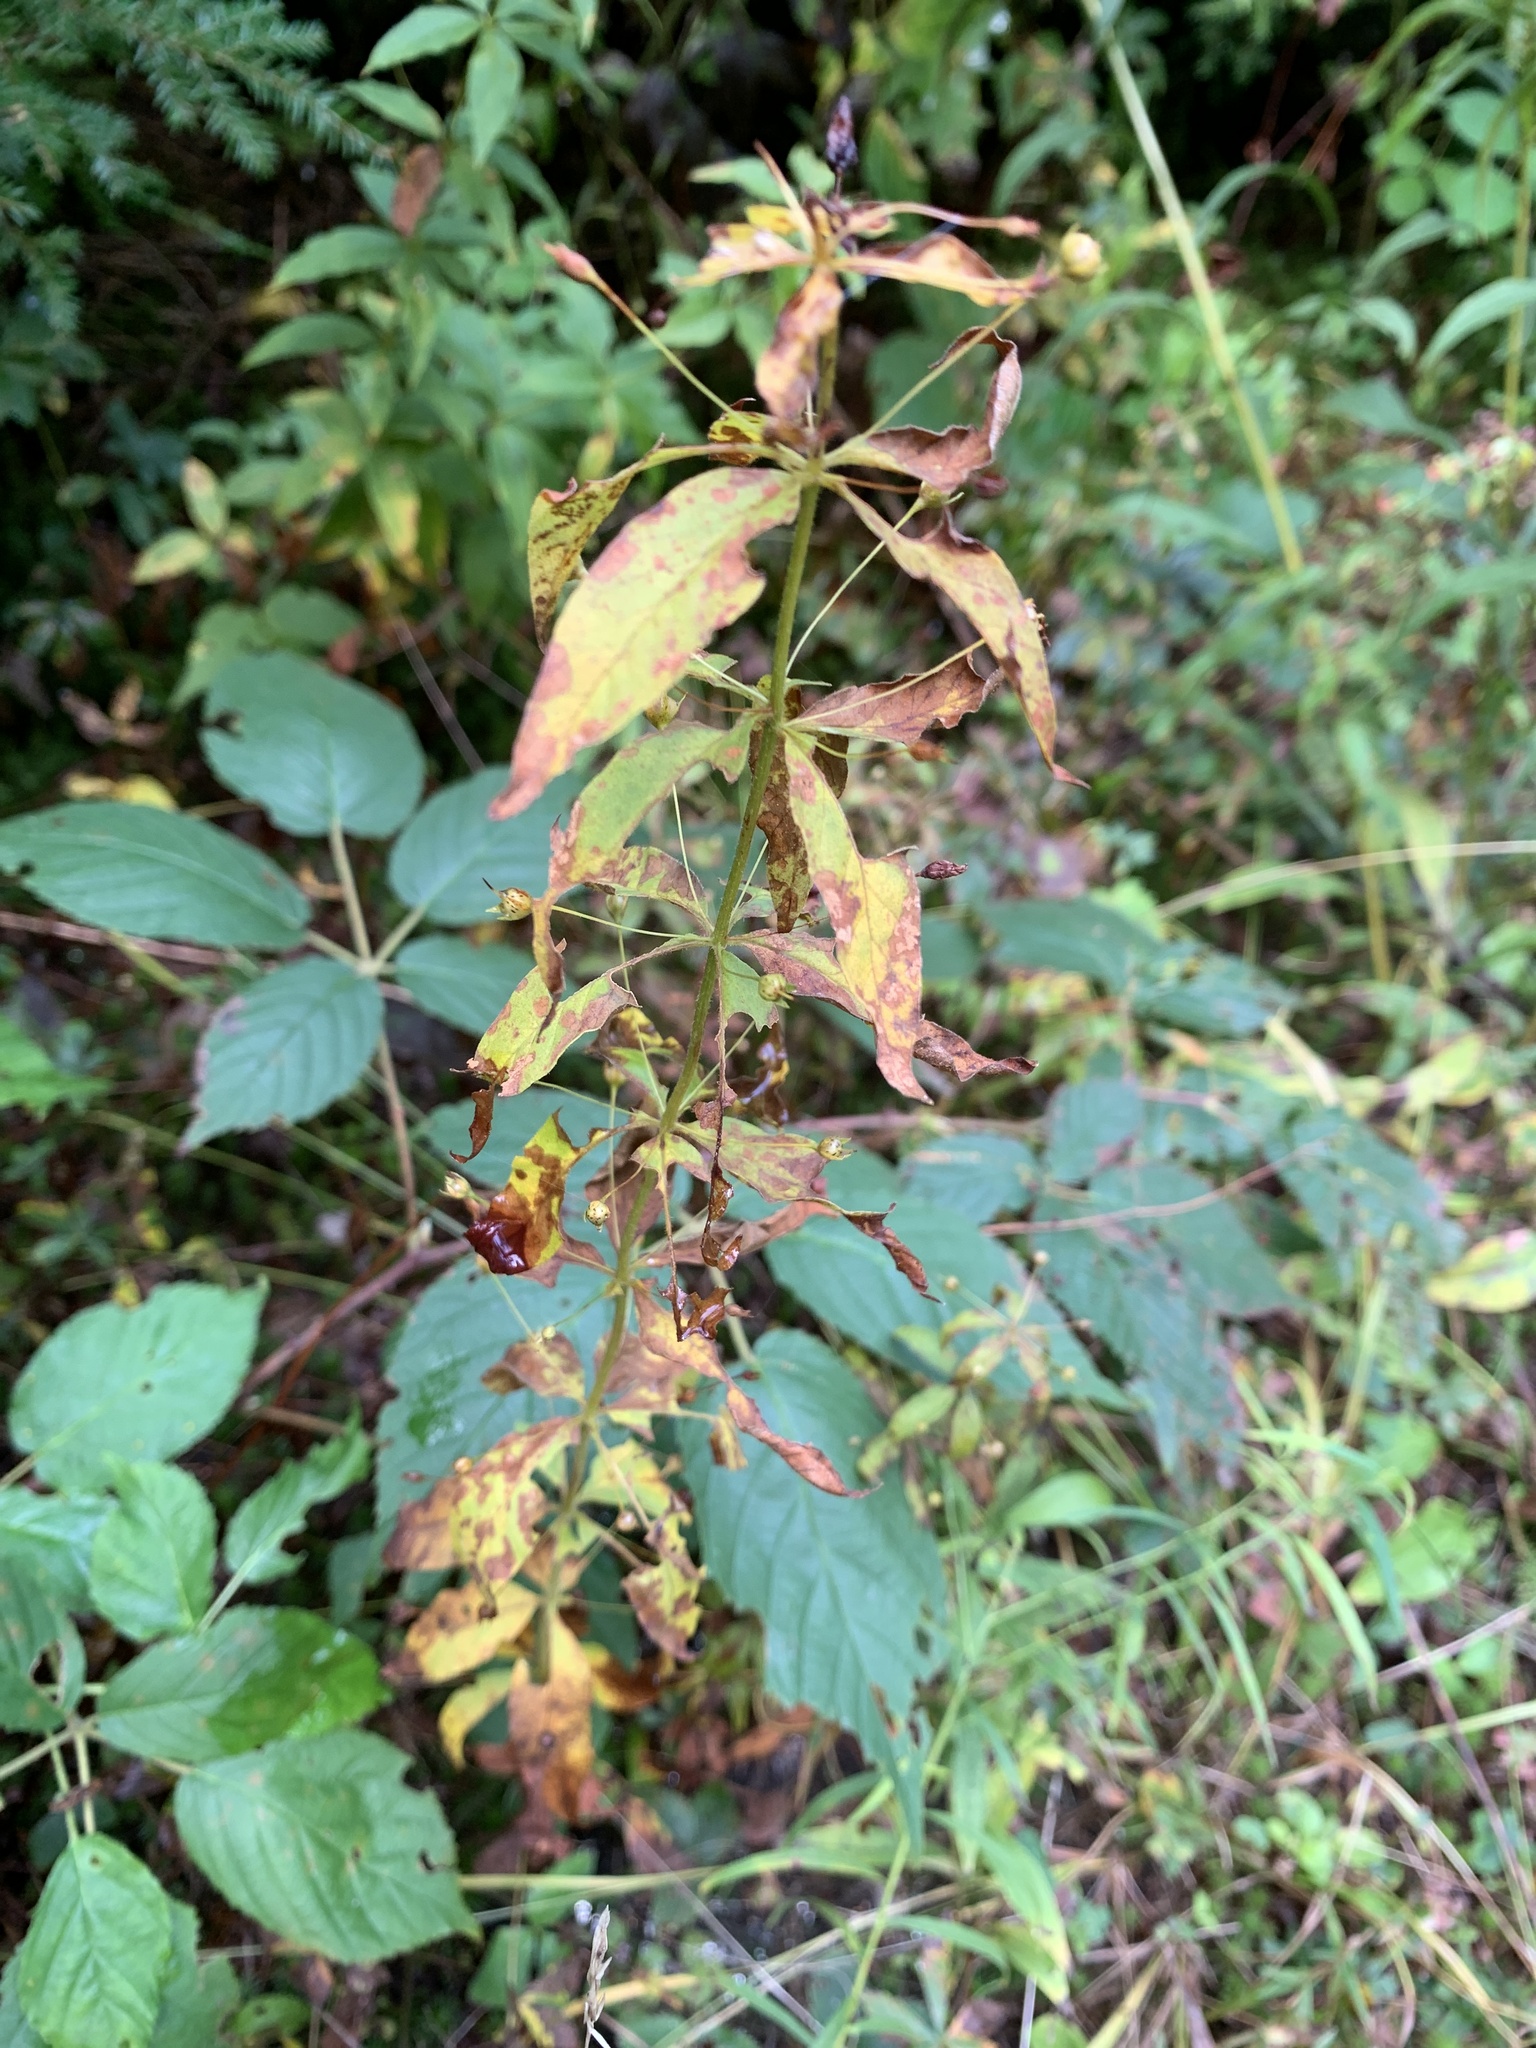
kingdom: Plantae
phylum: Tracheophyta
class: Magnoliopsida
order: Ericales
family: Primulaceae
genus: Lysimachia
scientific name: Lysimachia quadrifolia
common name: Whorled loosestrife
